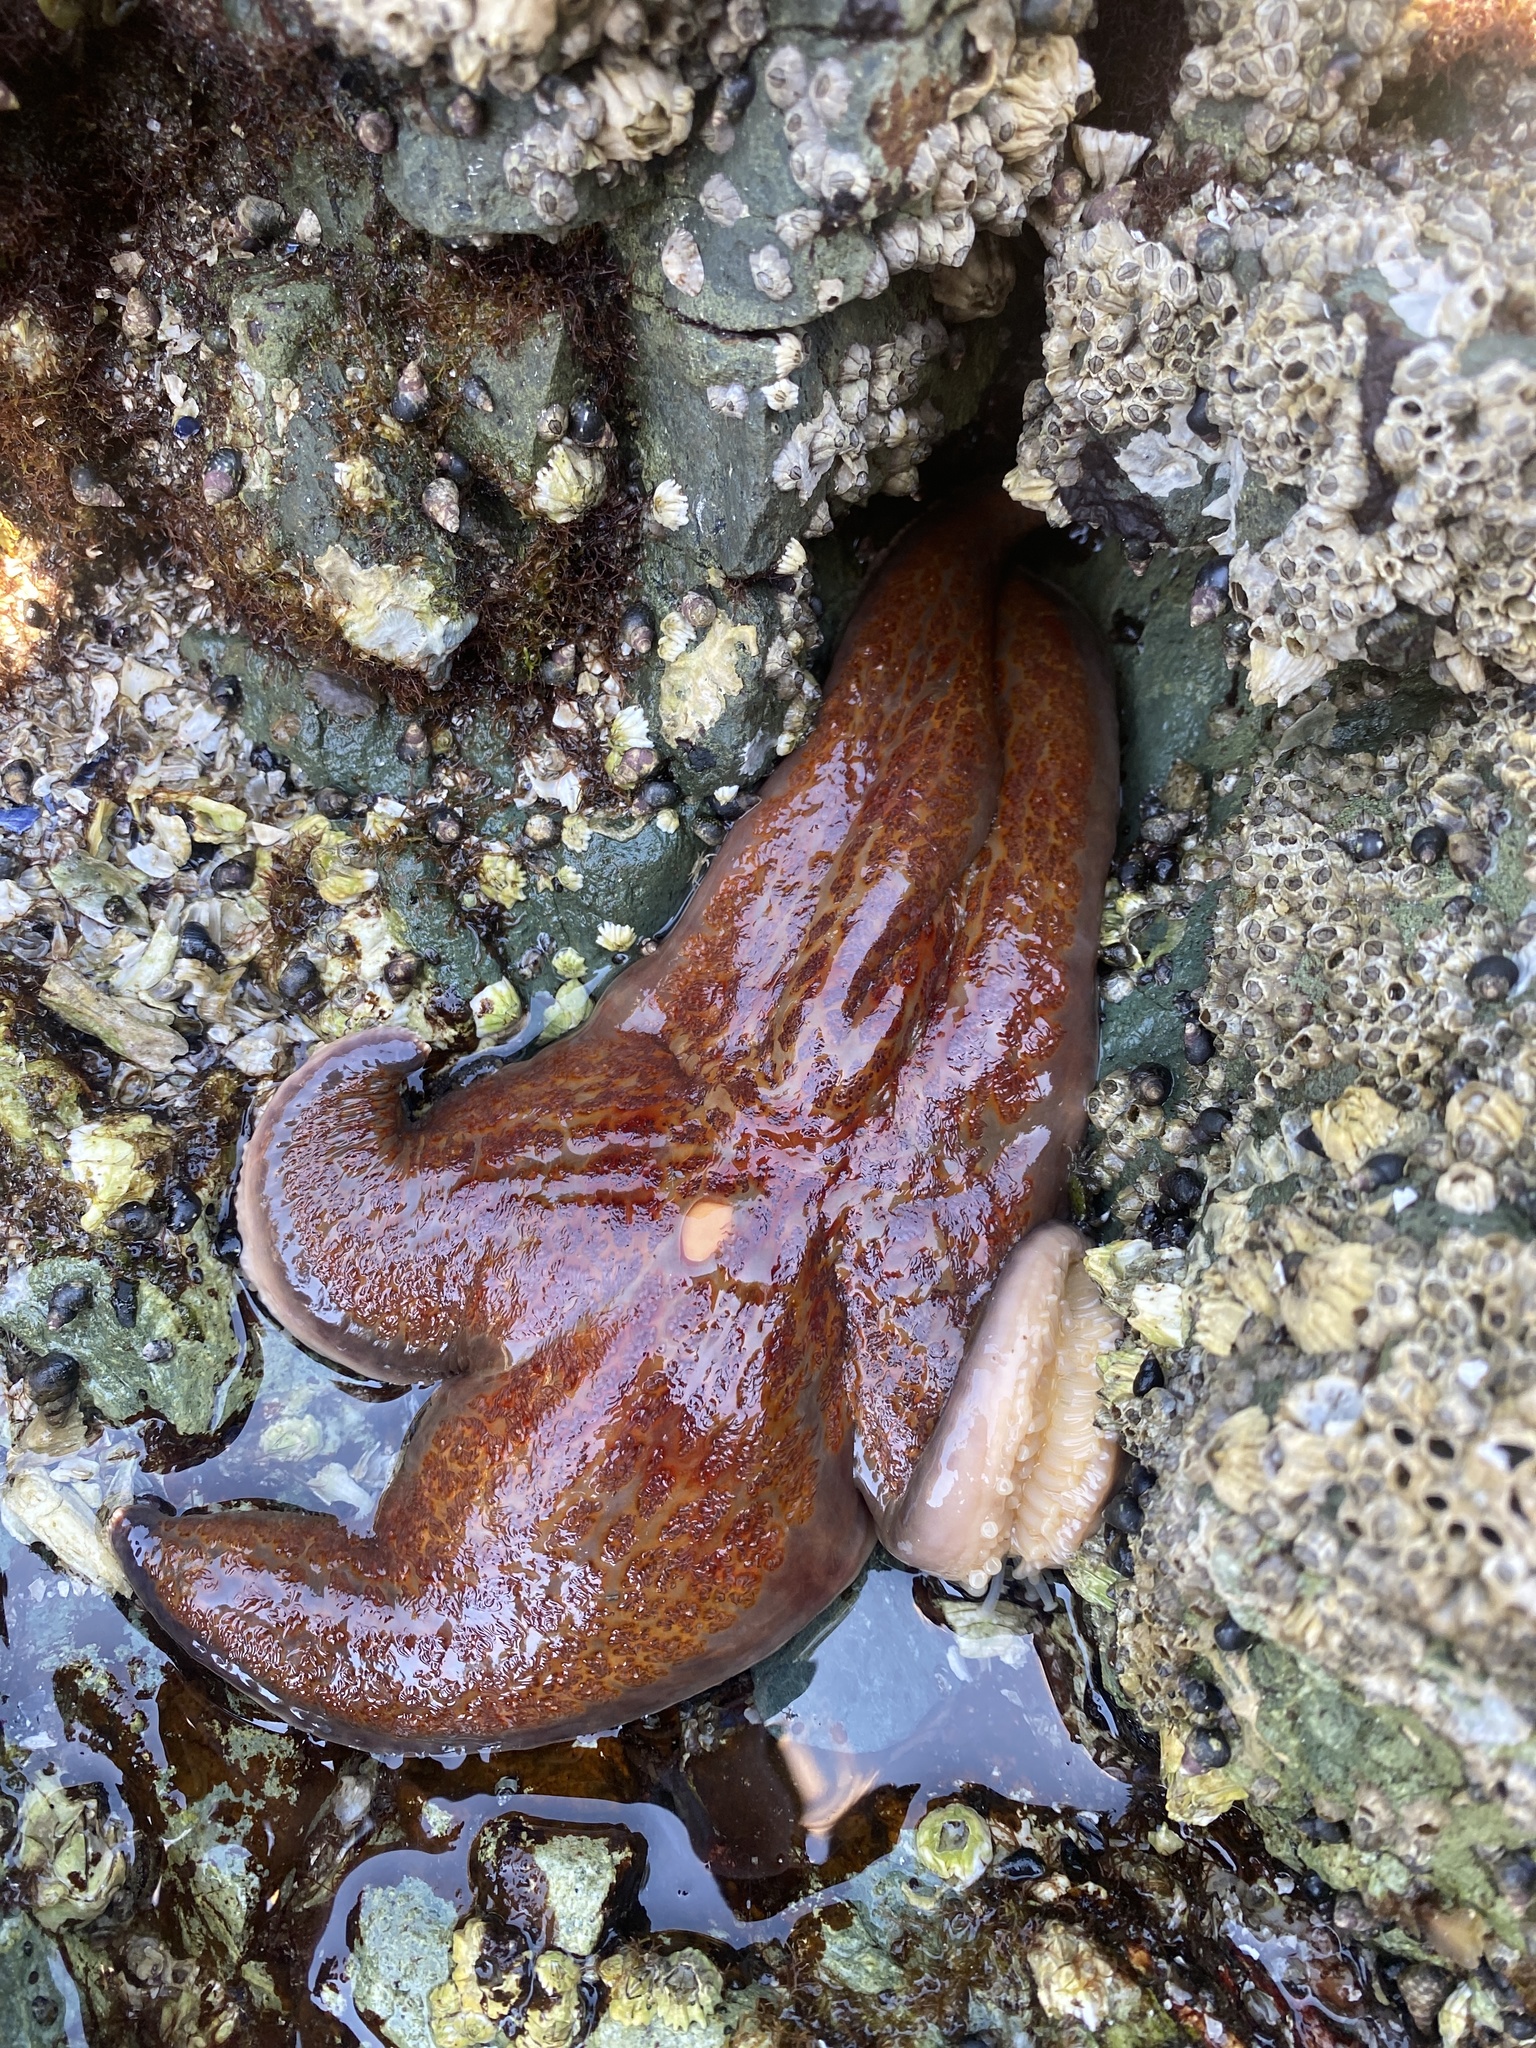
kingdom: Animalia
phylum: Echinodermata
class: Asteroidea
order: Valvatida
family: Asteropseidae
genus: Dermasterias
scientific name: Dermasterias imbricata
